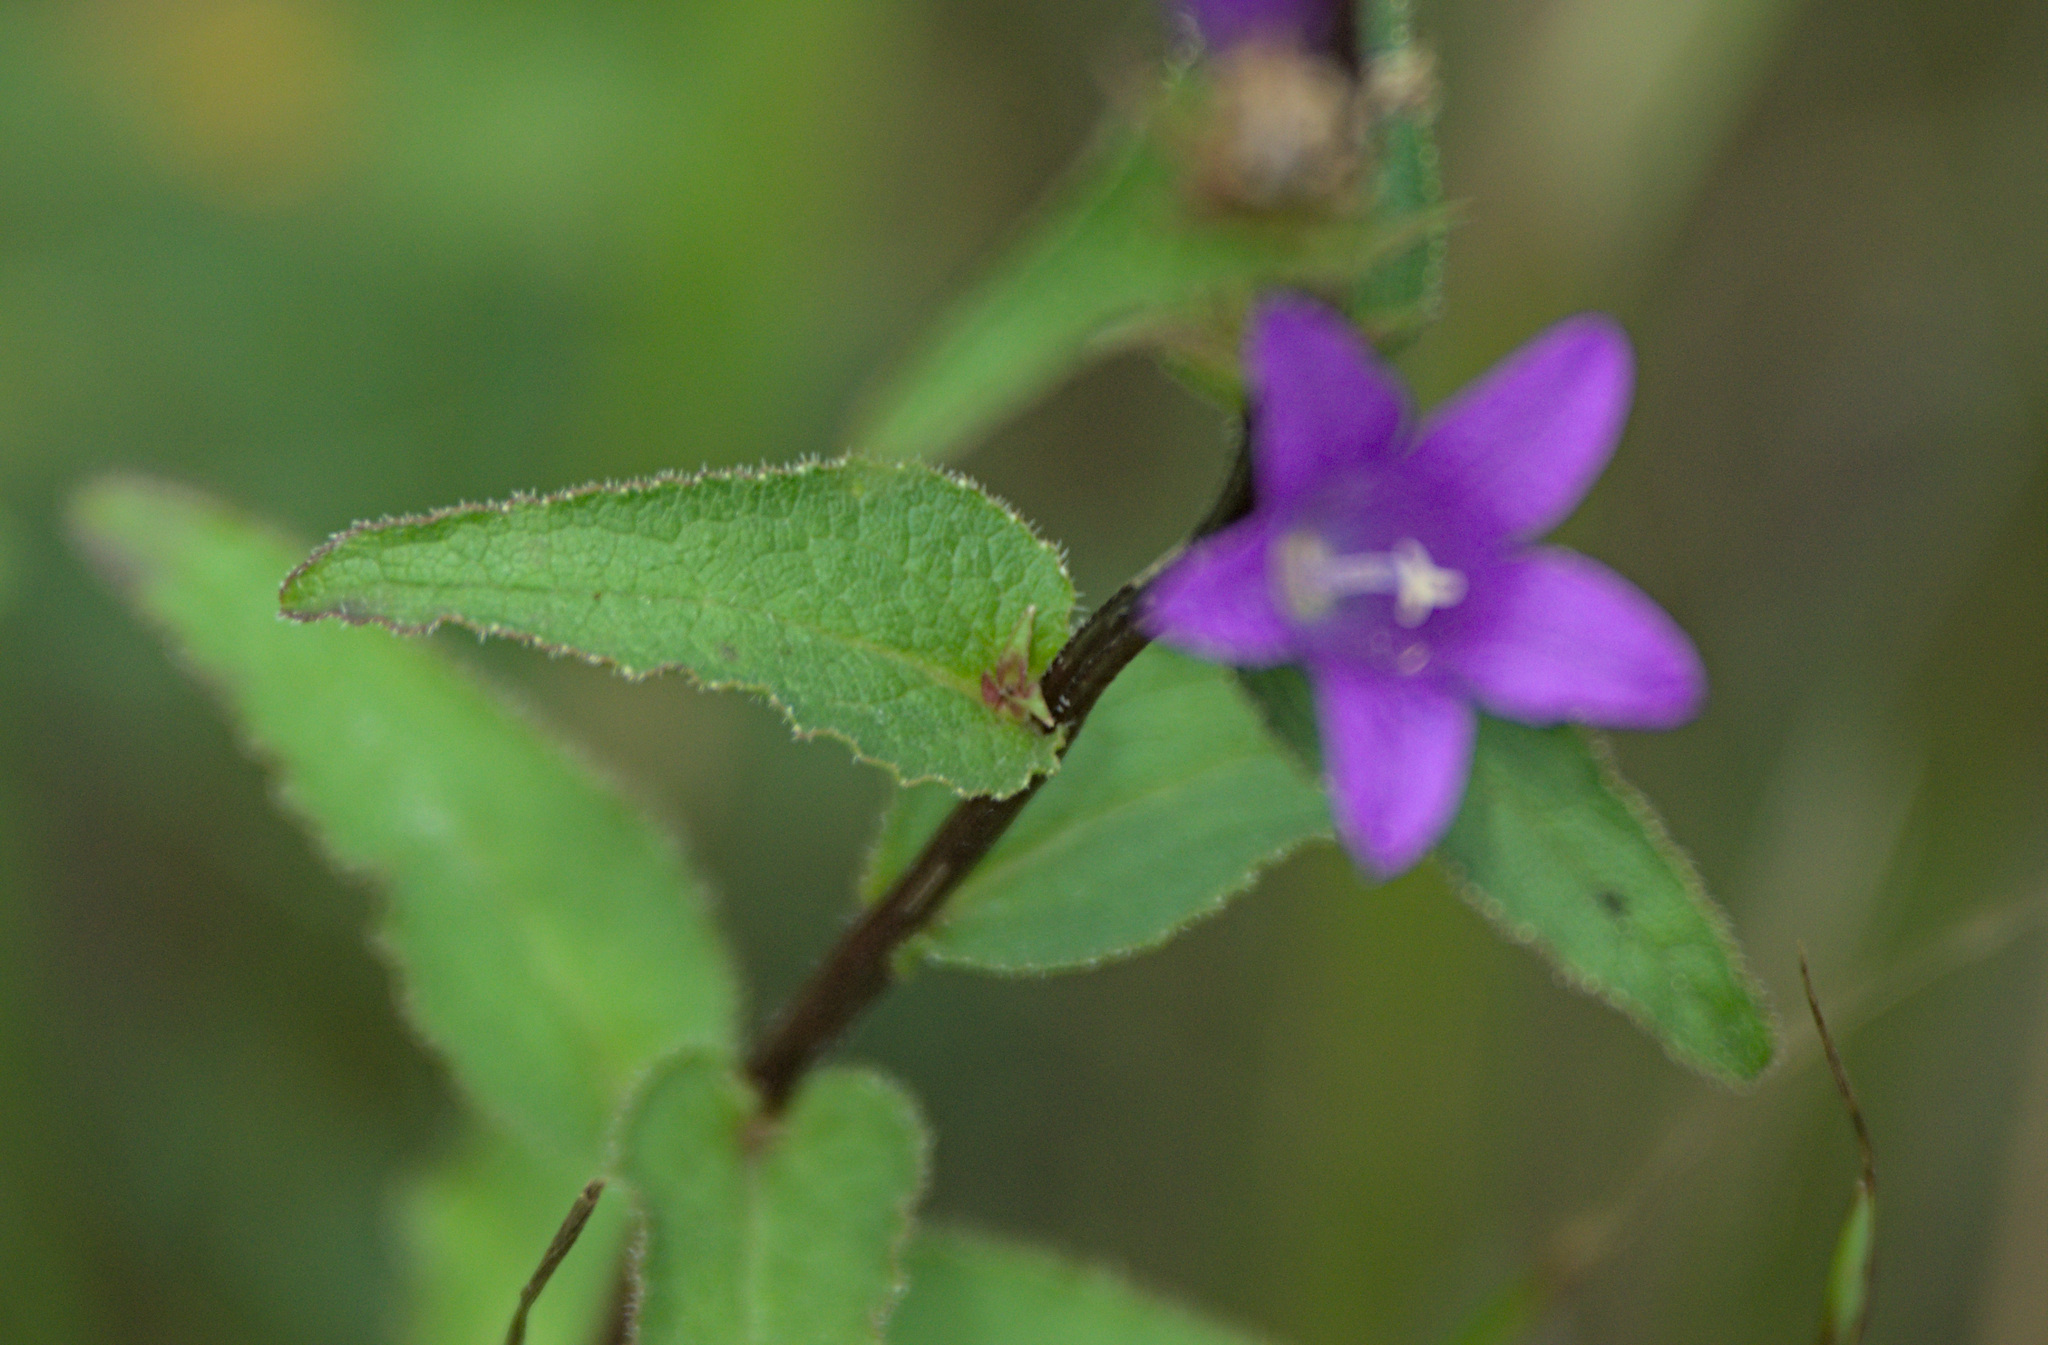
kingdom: Plantae
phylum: Tracheophyta
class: Magnoliopsida
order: Asterales
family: Campanulaceae
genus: Campanula
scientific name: Campanula glomerata
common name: Clustered bellflower
